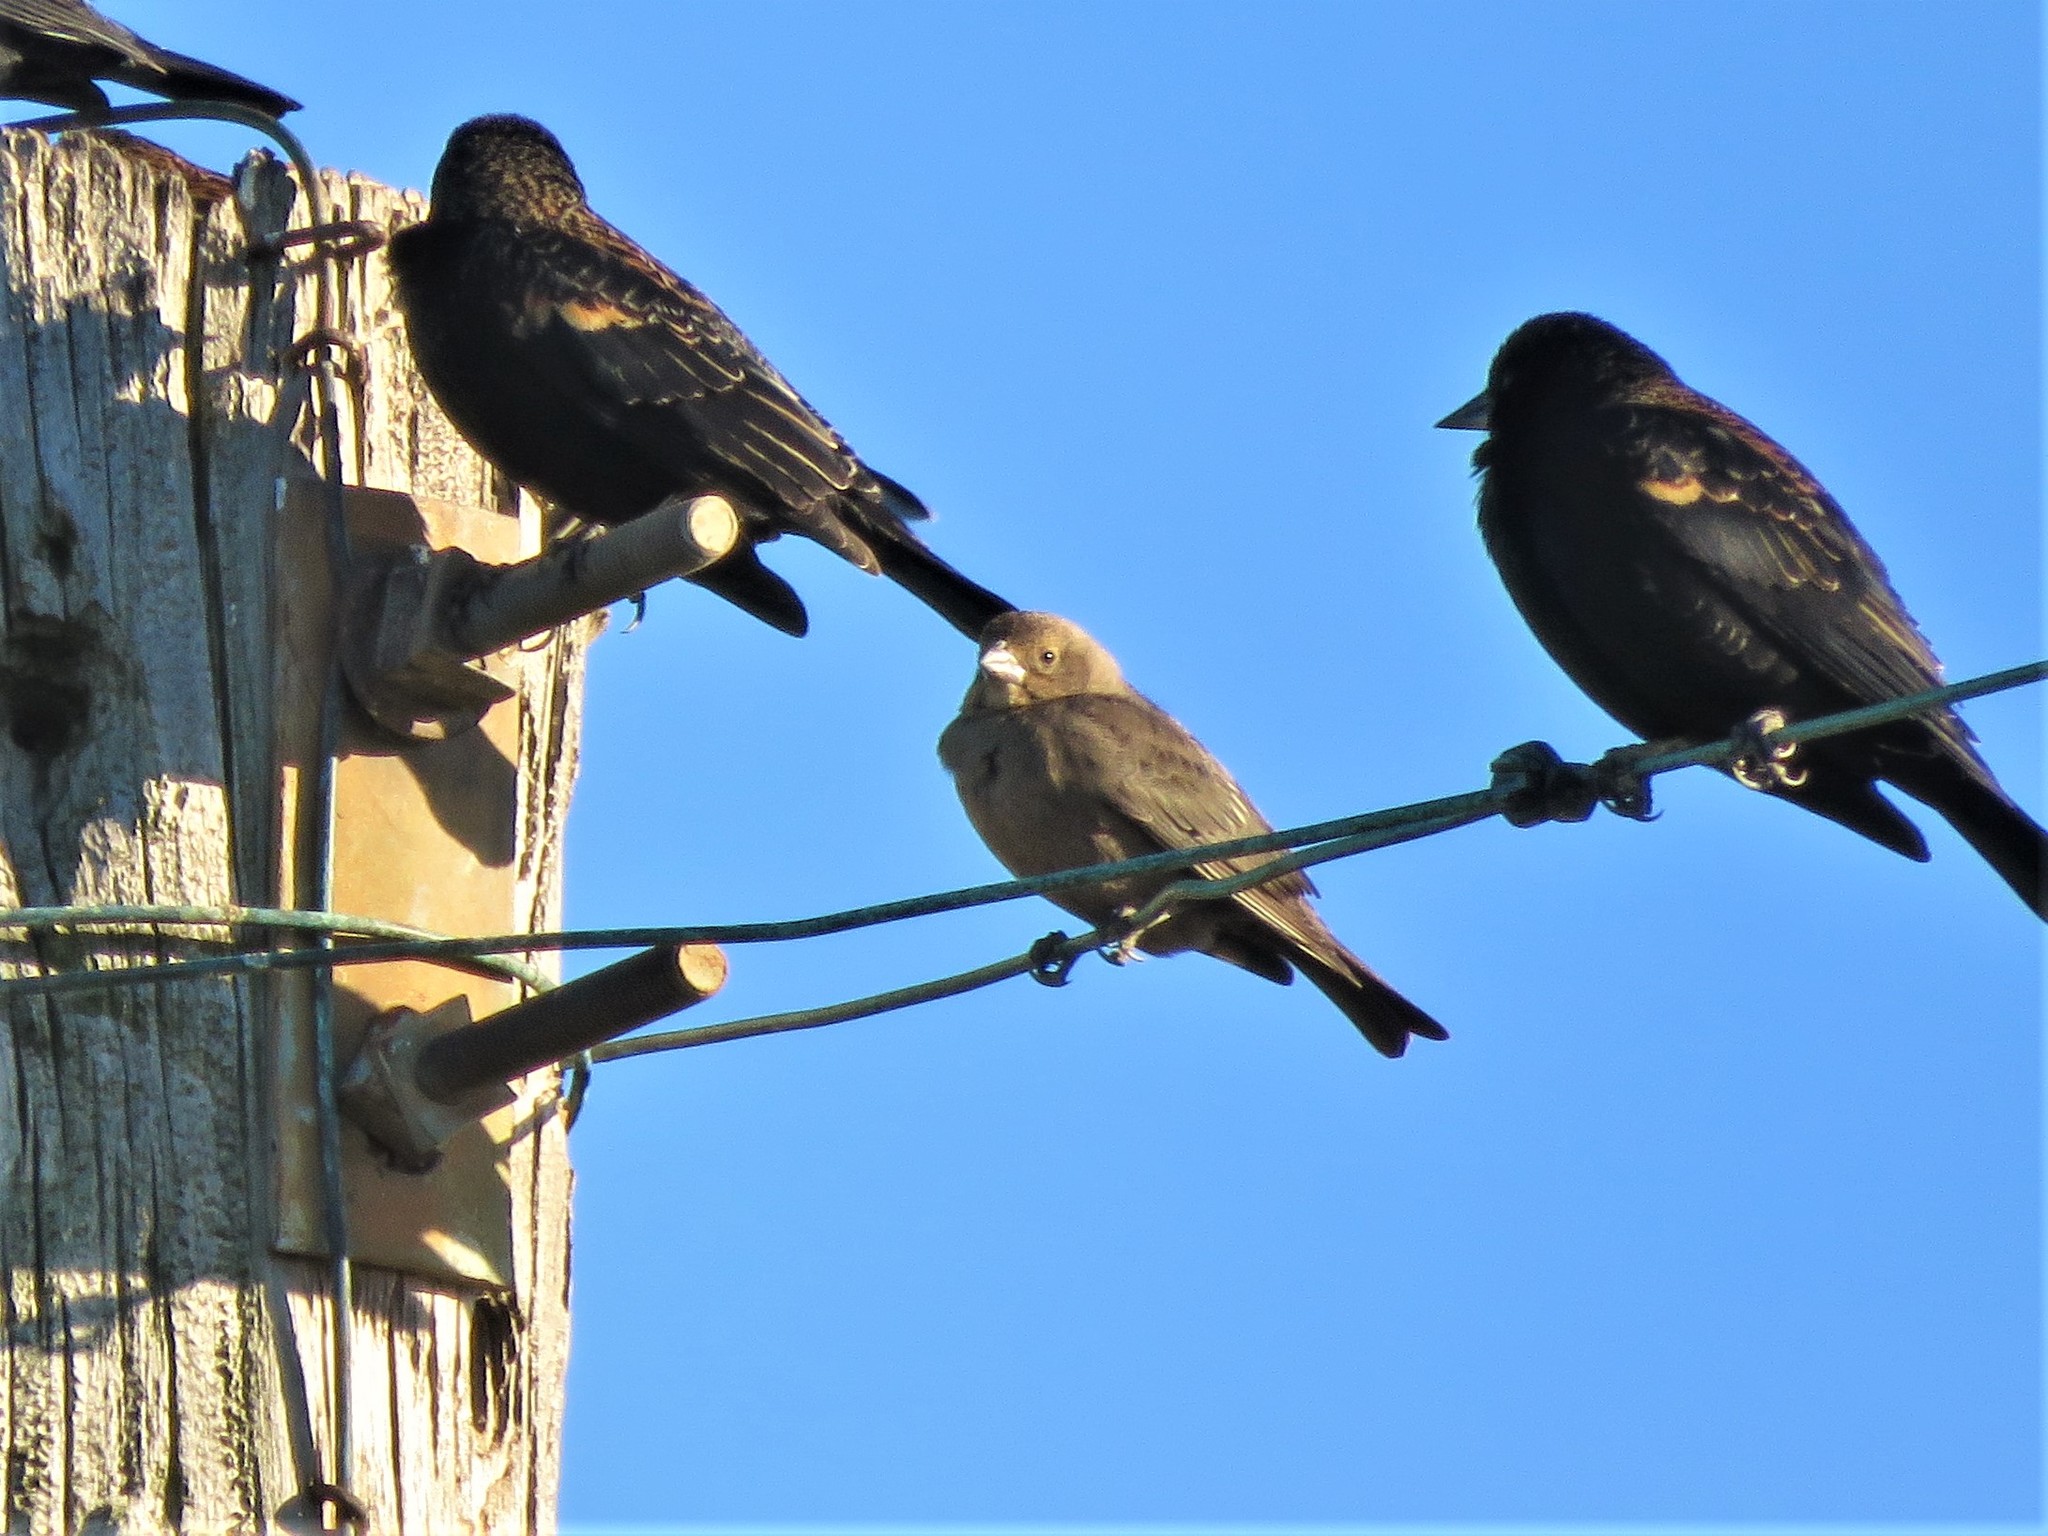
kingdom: Animalia
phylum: Chordata
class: Aves
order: Passeriformes
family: Icteridae
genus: Molothrus
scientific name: Molothrus ater
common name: Brown-headed cowbird
